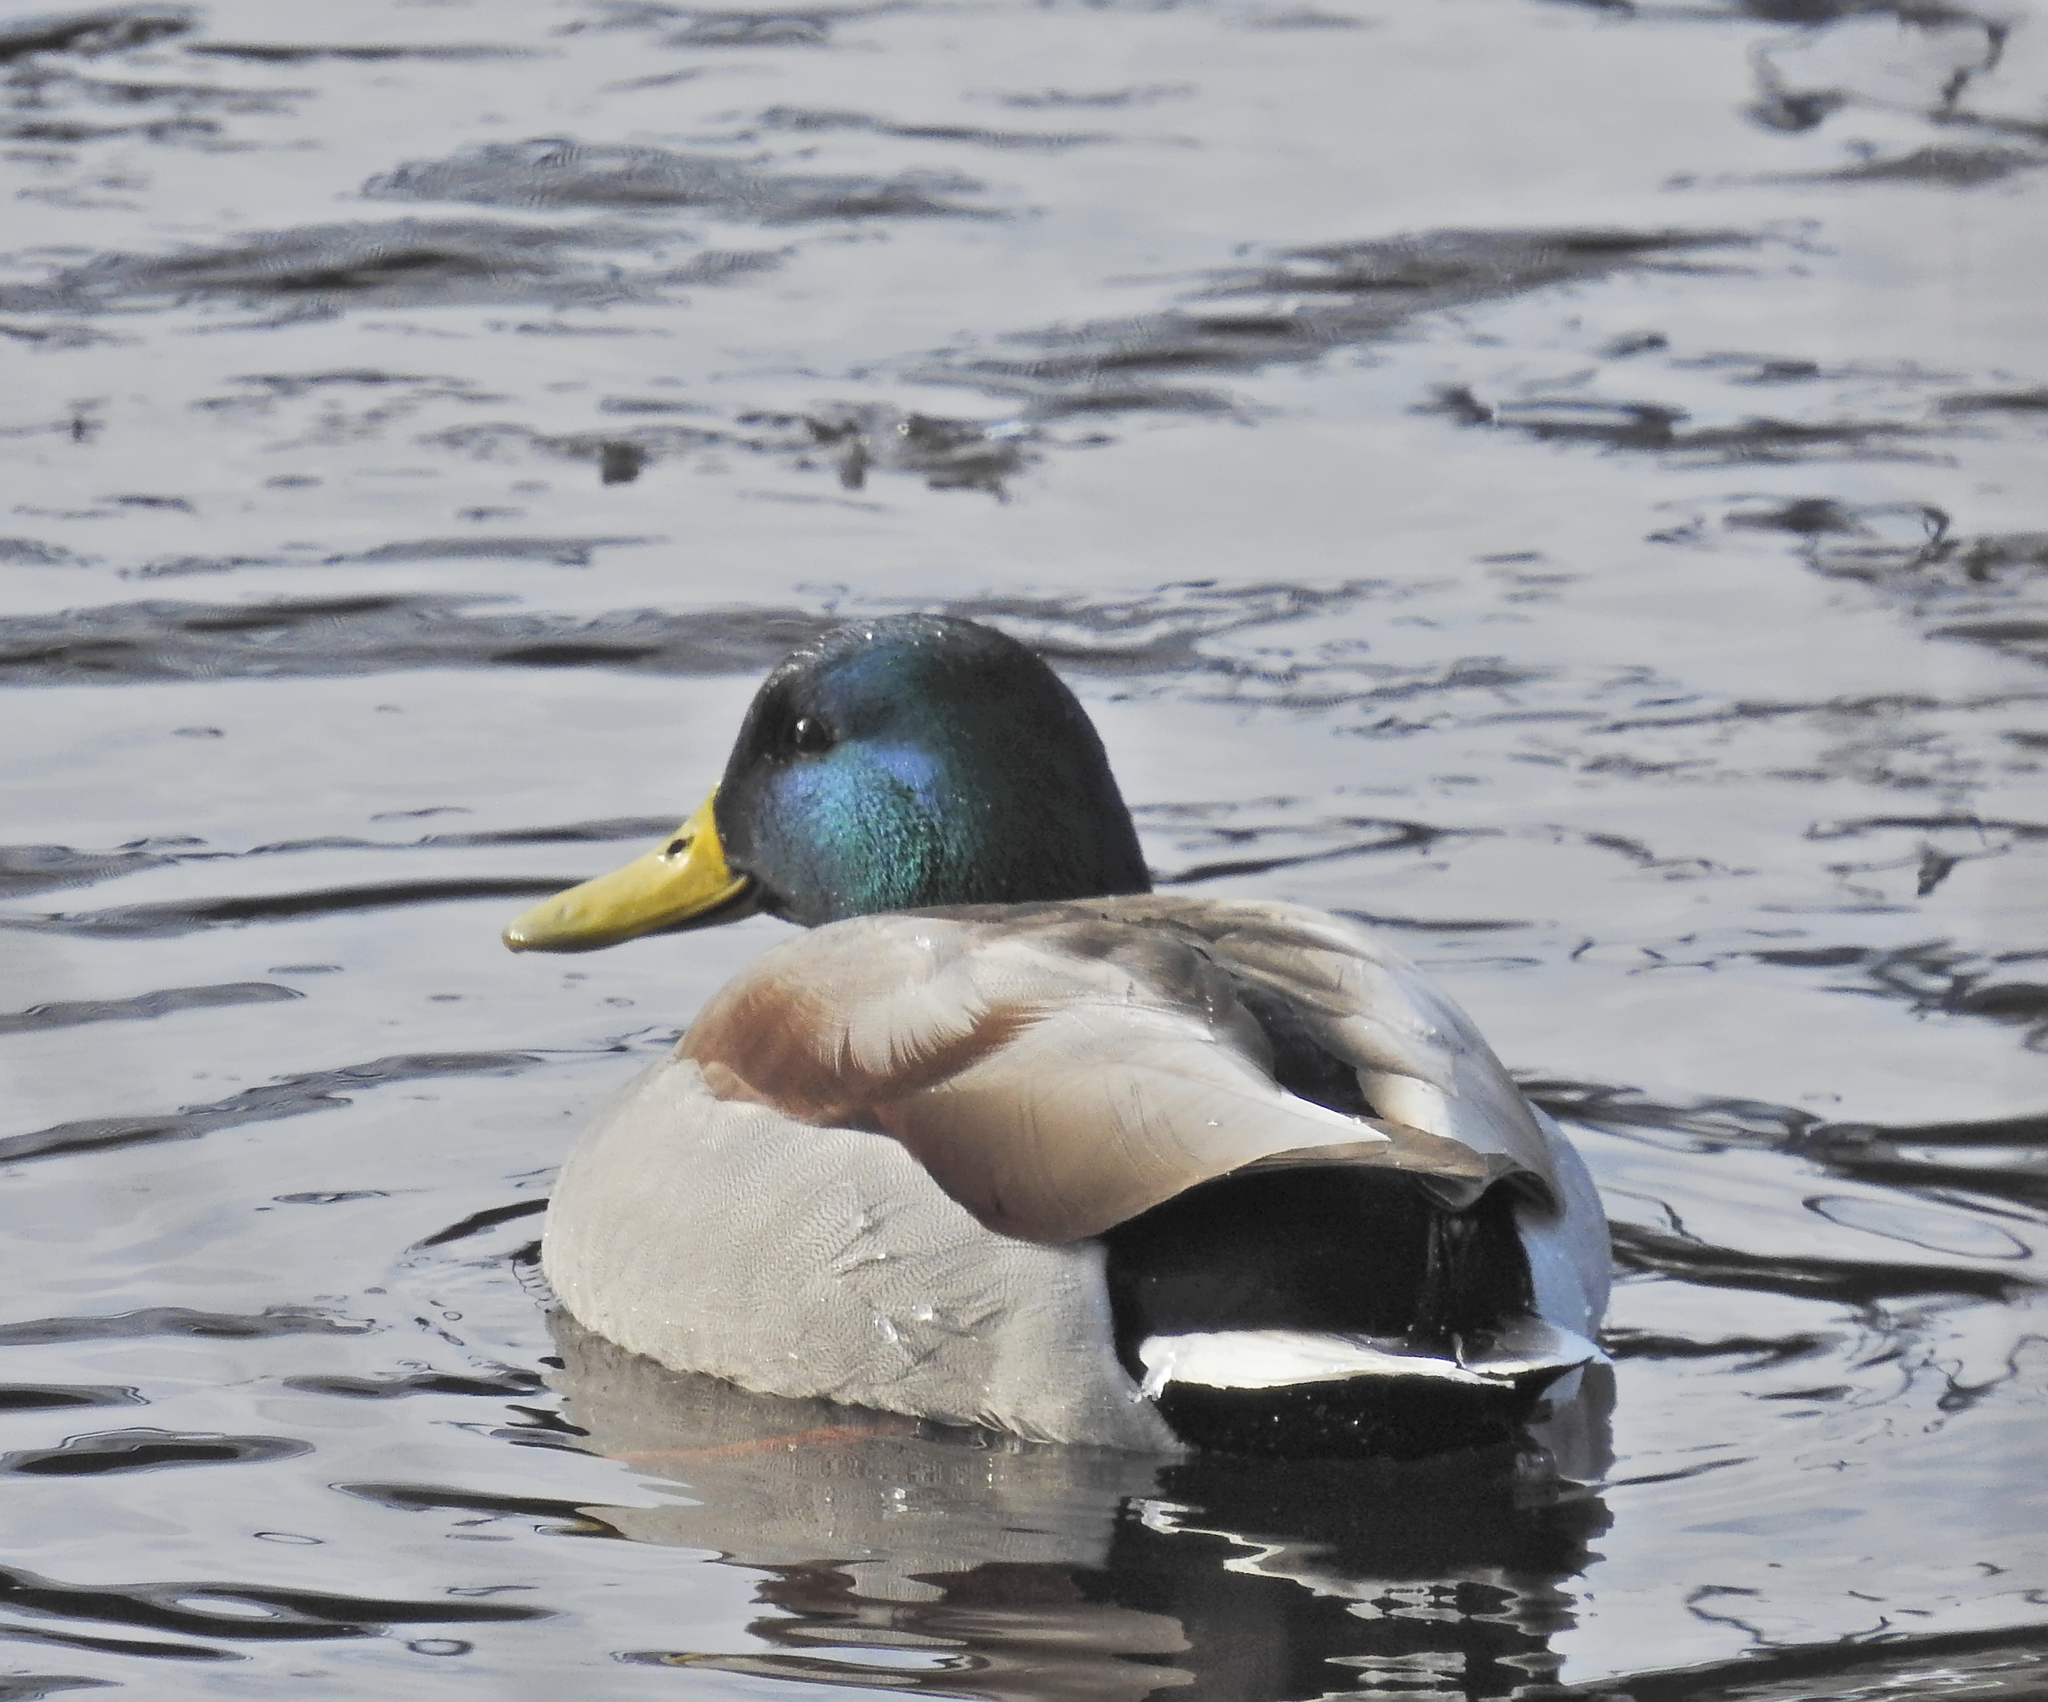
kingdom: Animalia
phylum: Chordata
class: Aves
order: Anseriformes
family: Anatidae
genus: Anas
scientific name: Anas platyrhynchos
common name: Mallard
